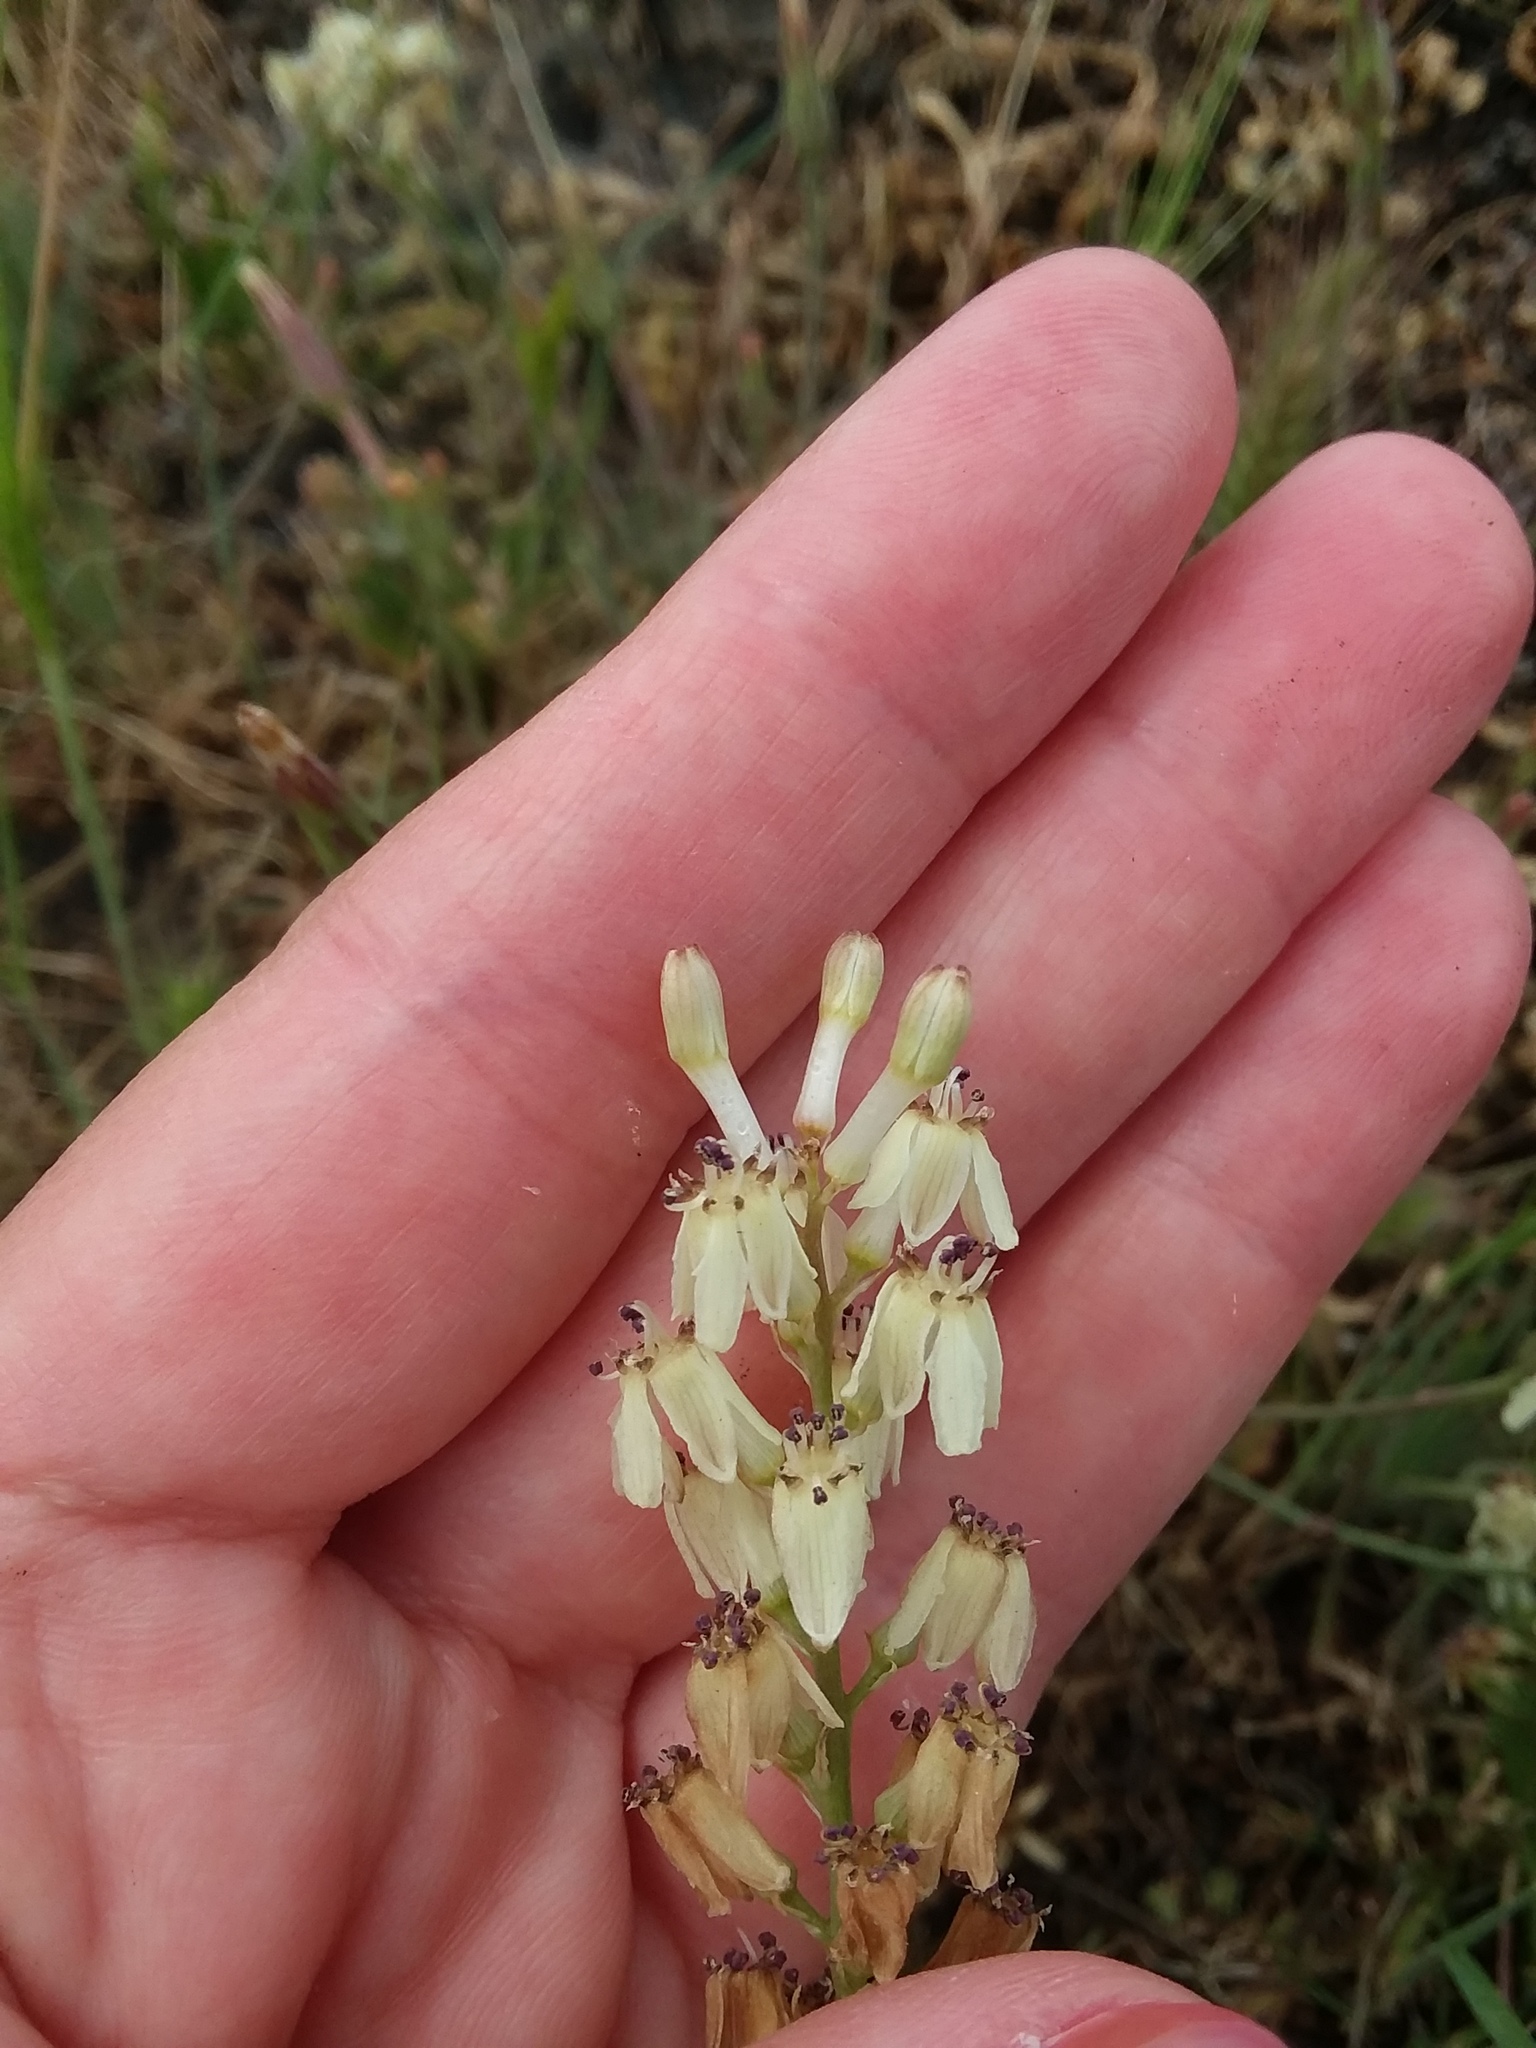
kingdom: Plantae
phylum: Tracheophyta
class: Liliopsida
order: Asparagales
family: Tecophilaeaceae
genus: Odontostomum
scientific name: Odontostomum hartwegii
